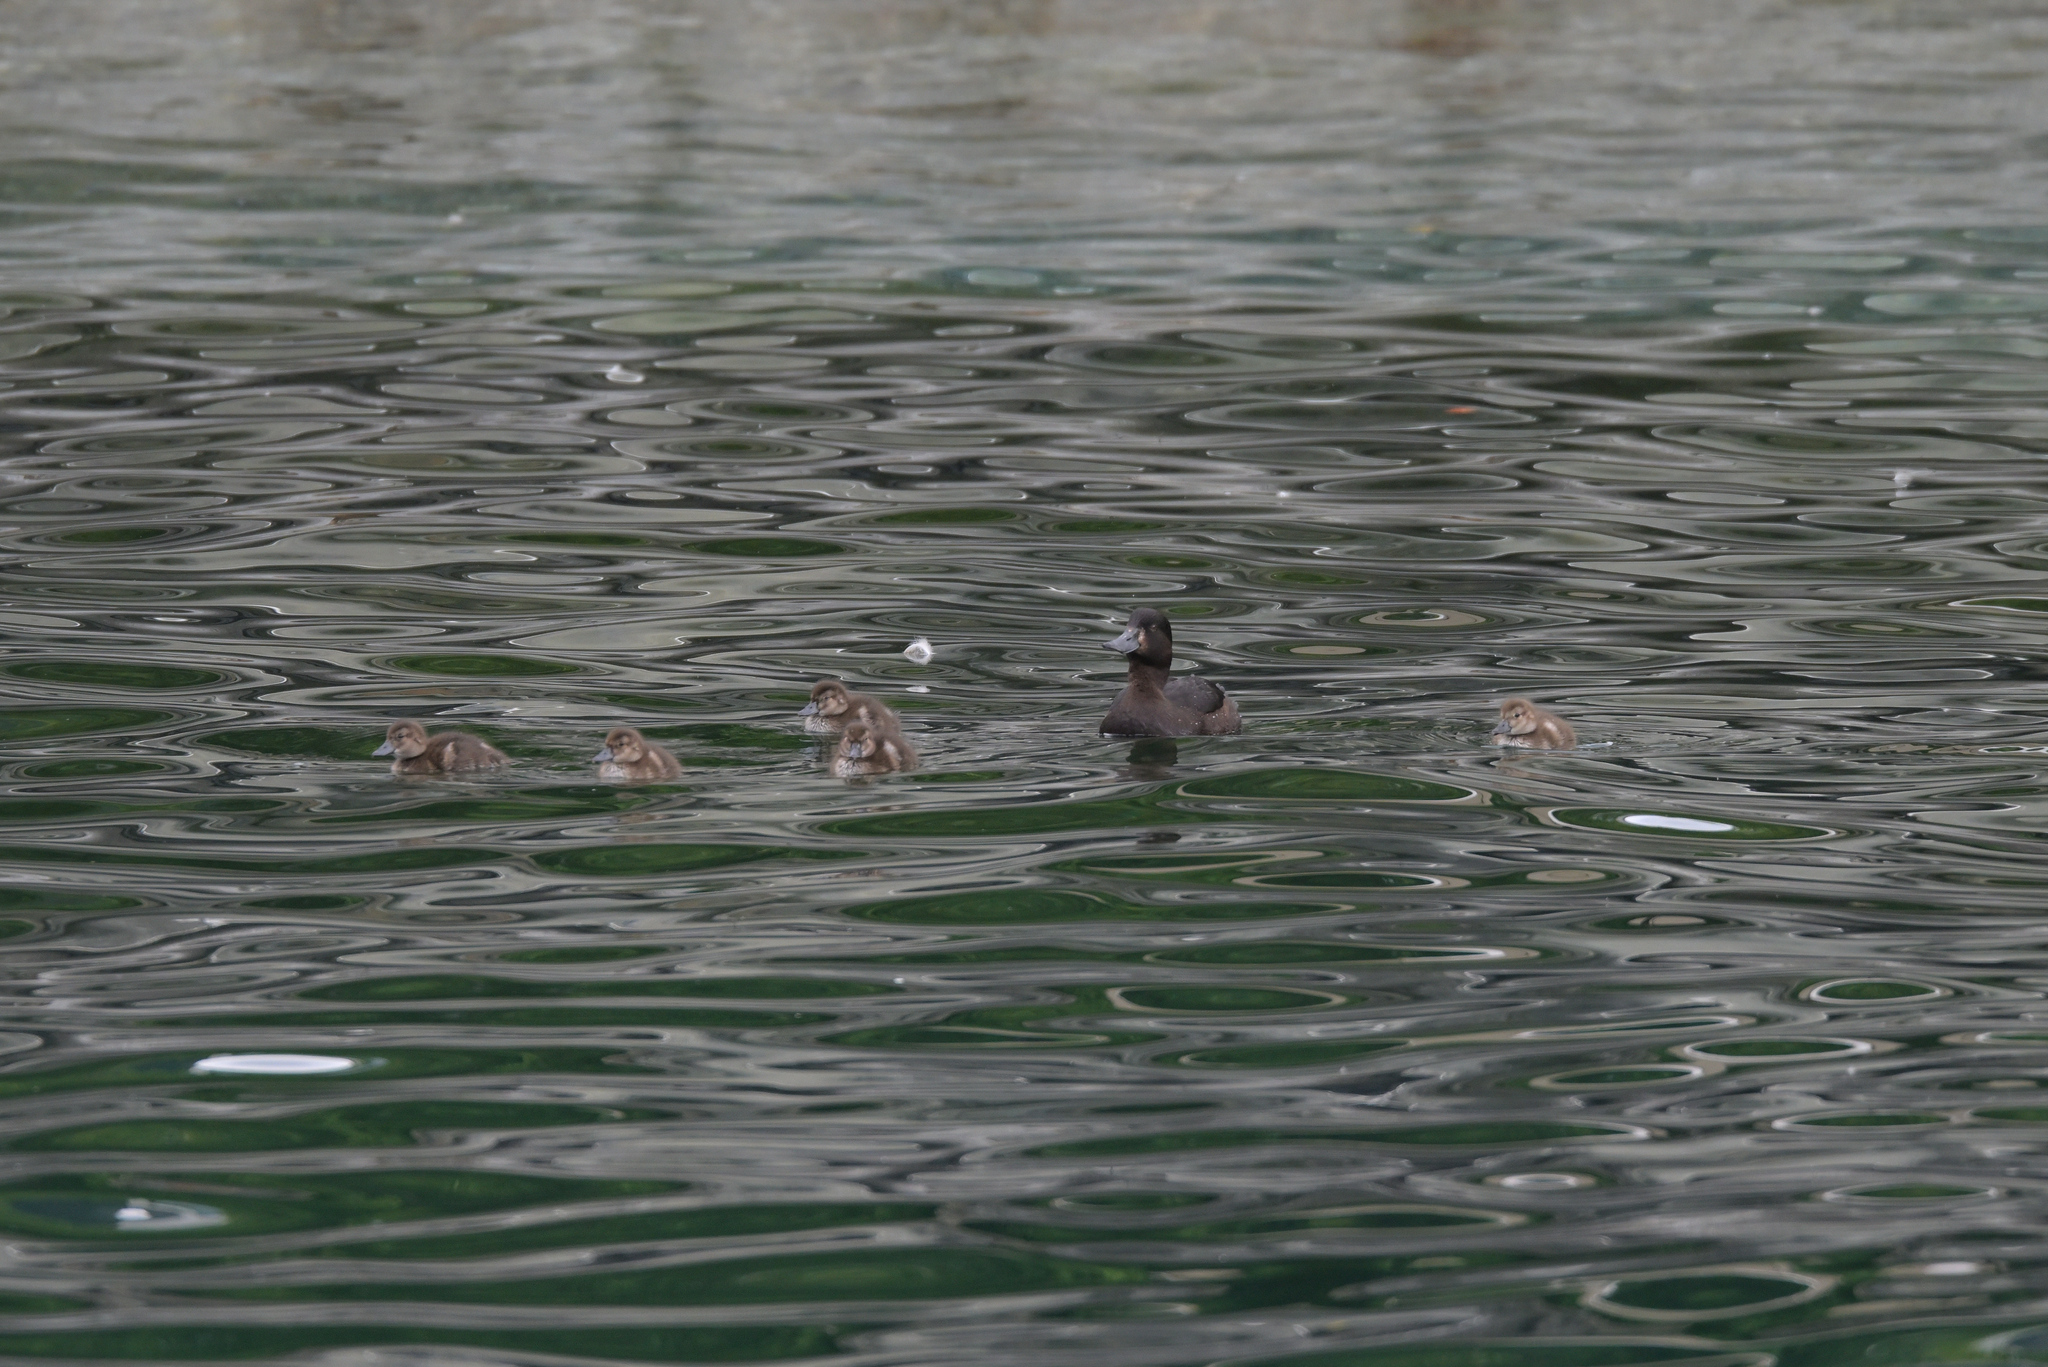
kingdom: Animalia
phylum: Chordata
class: Aves
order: Anseriformes
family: Anatidae
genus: Aythya
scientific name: Aythya novaeseelandiae
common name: New zealand scaup
